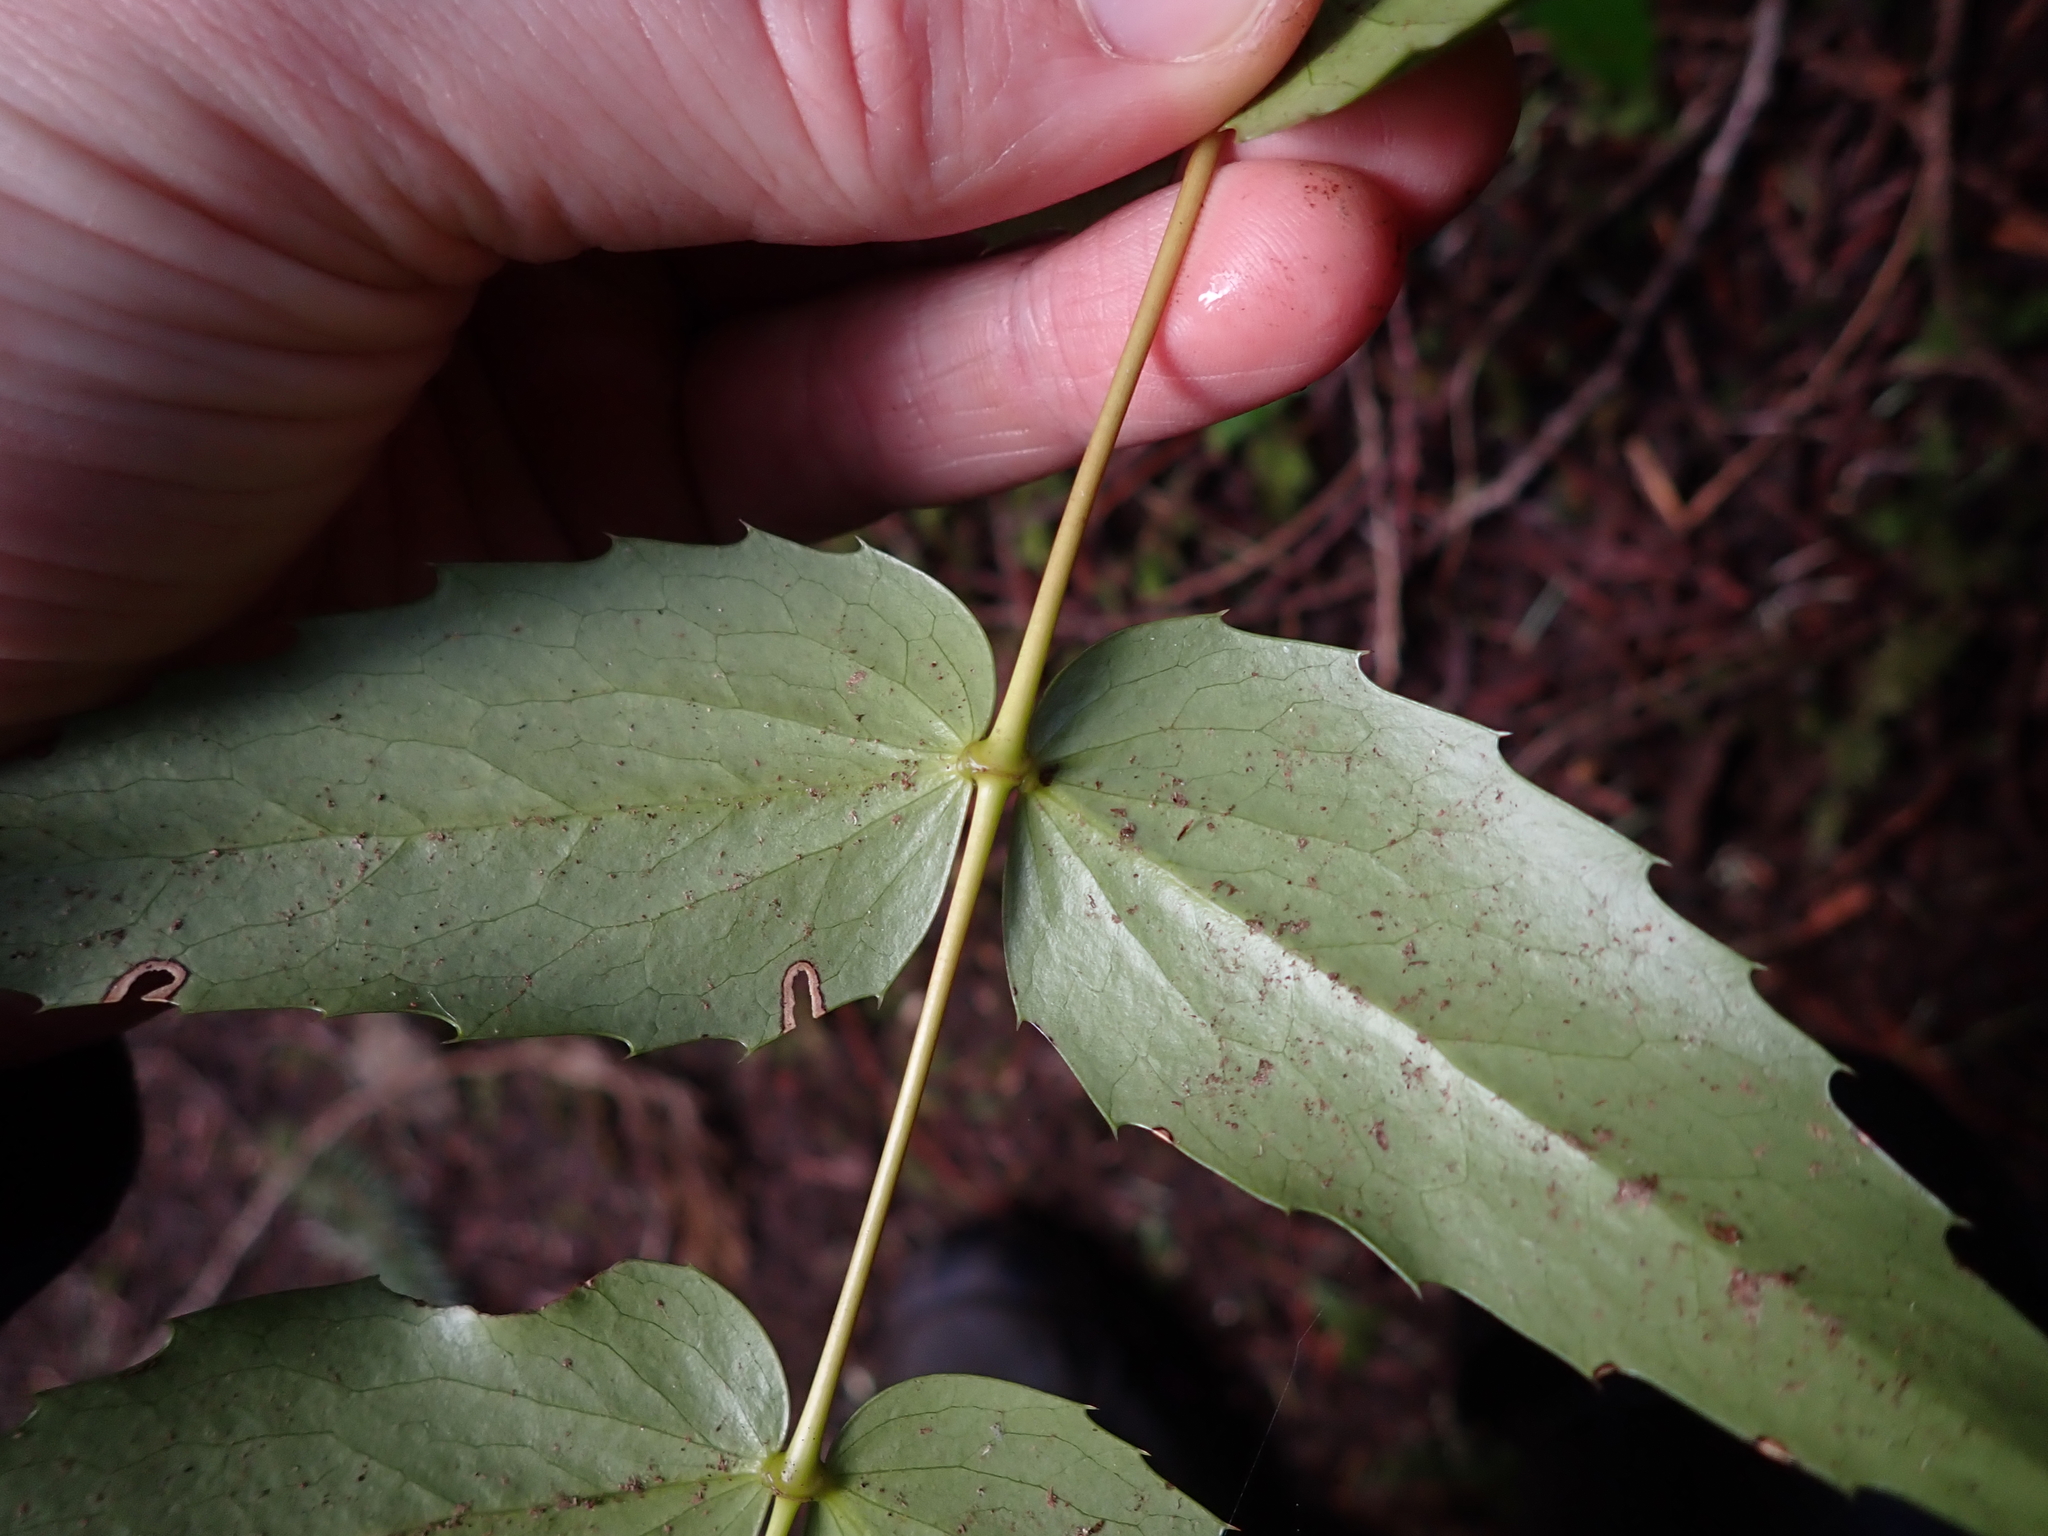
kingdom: Plantae
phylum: Tracheophyta
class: Magnoliopsida
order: Ranunculales
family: Berberidaceae
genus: Mahonia
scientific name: Mahonia nervosa
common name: Cascade oregon-grape
